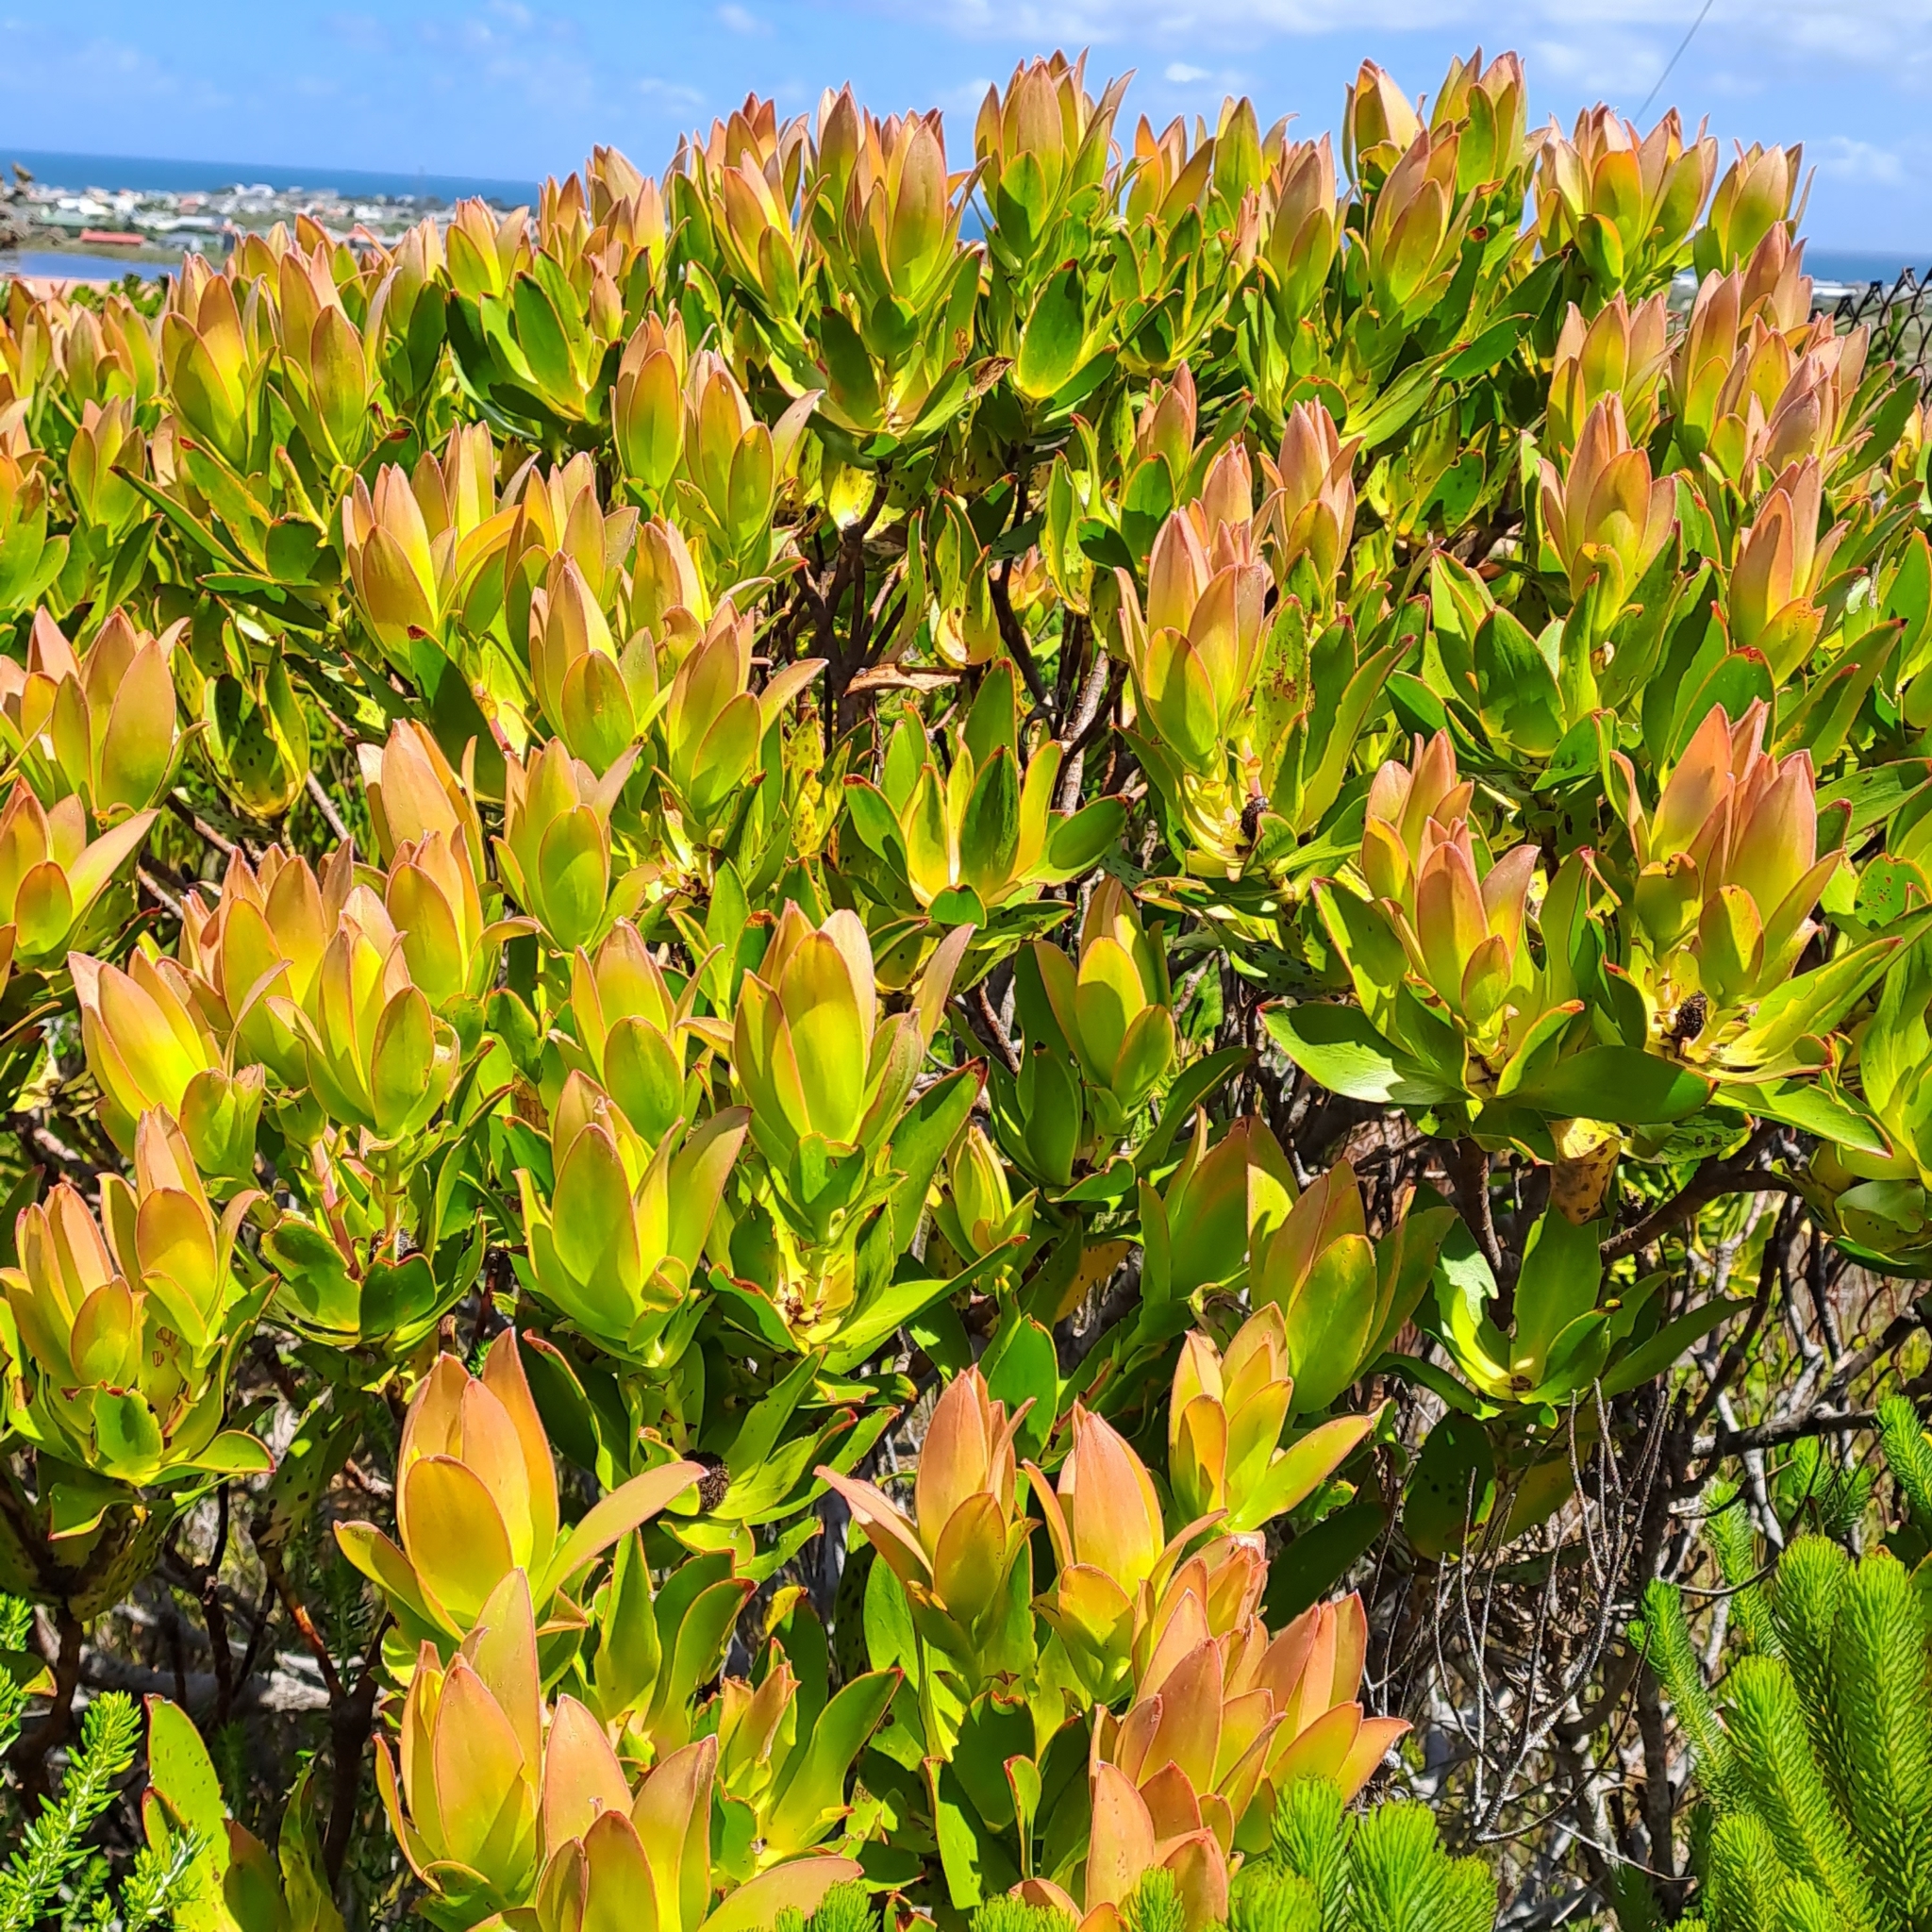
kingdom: Plantae
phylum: Tracheophyta
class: Magnoliopsida
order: Proteales
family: Proteaceae
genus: Leucadendron
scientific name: Leucadendron gandogeri
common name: Broad-leaf conebush
